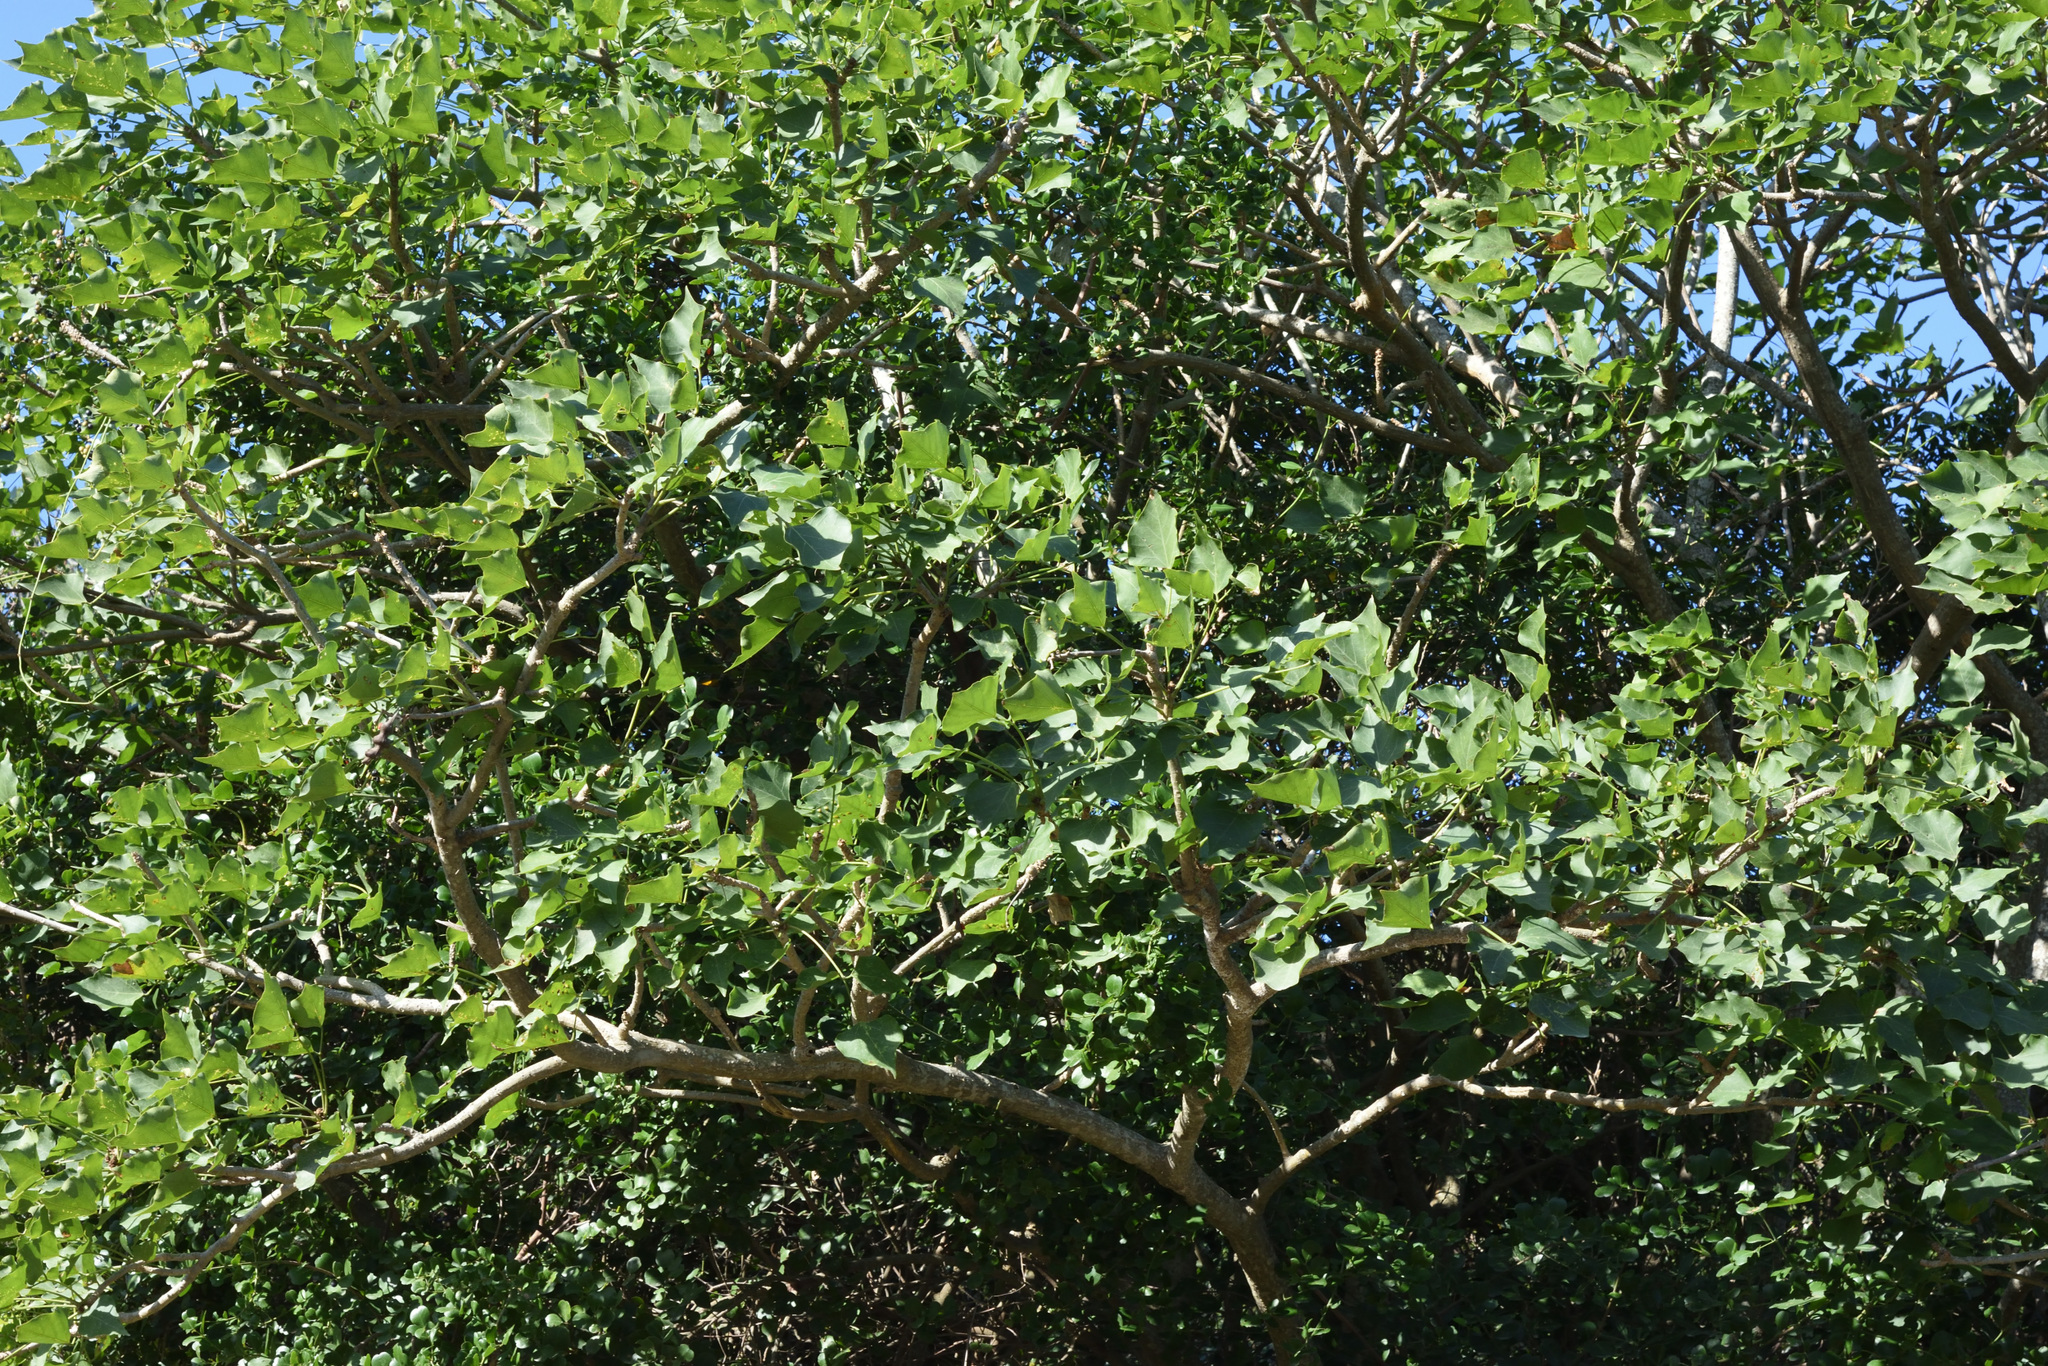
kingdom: Plantae
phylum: Tracheophyta
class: Magnoliopsida
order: Fabales
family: Fabaceae
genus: Erythrina
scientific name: Erythrina caffra
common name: Coast coral tree
